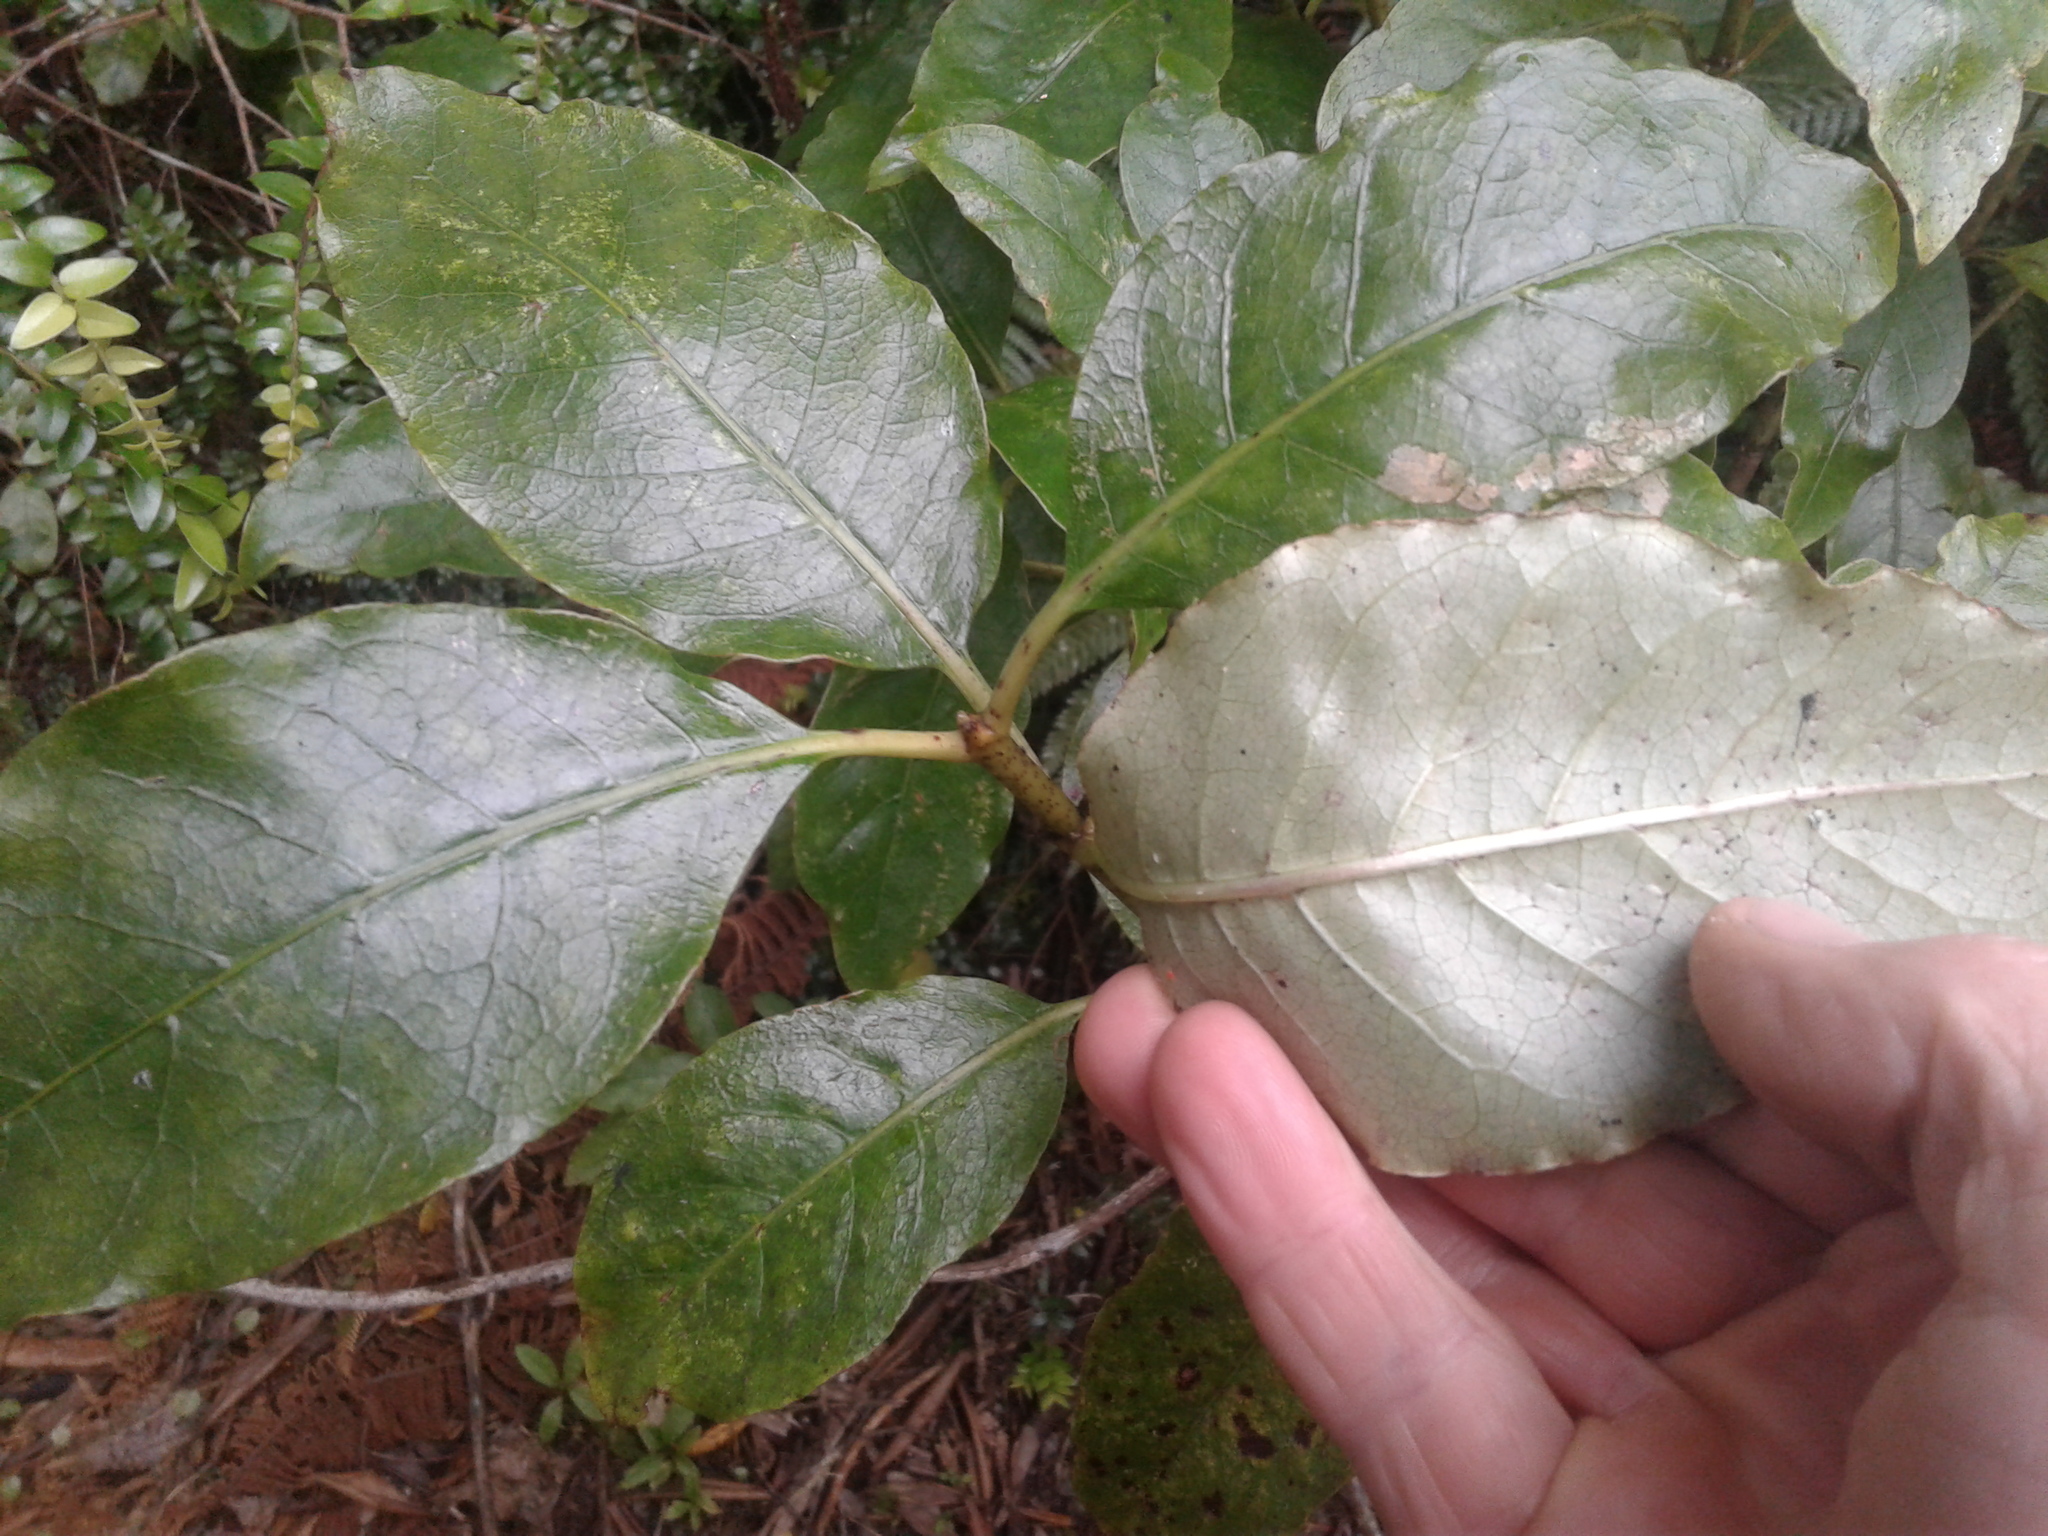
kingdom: Plantae
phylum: Tracheophyta
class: Magnoliopsida
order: Gentianales
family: Rubiaceae
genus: Coprosma
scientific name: Coprosma autumnalis
